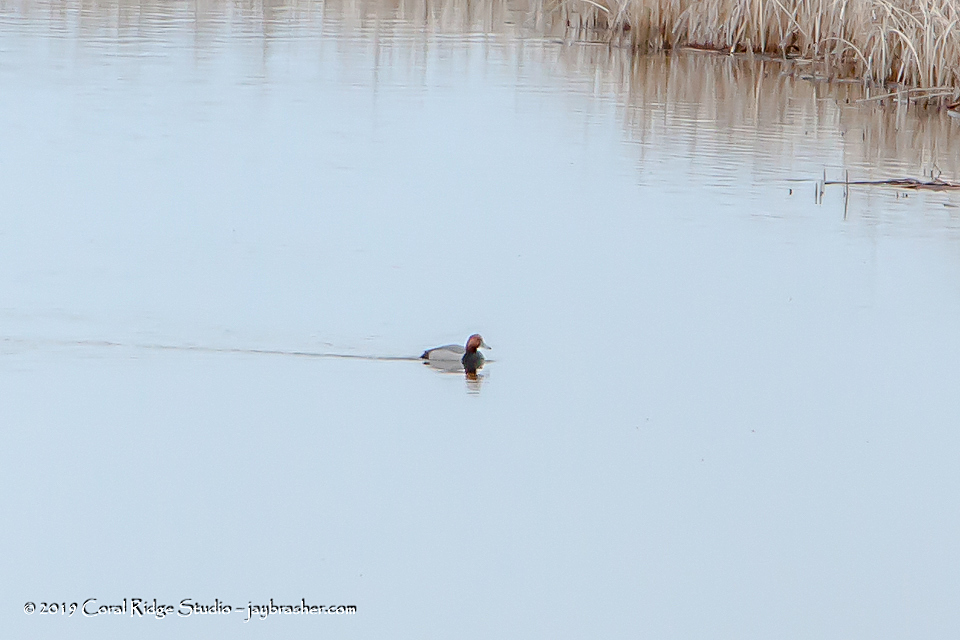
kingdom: Animalia
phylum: Chordata
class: Aves
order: Anseriformes
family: Anatidae
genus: Aythya
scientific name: Aythya americana
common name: Redhead
